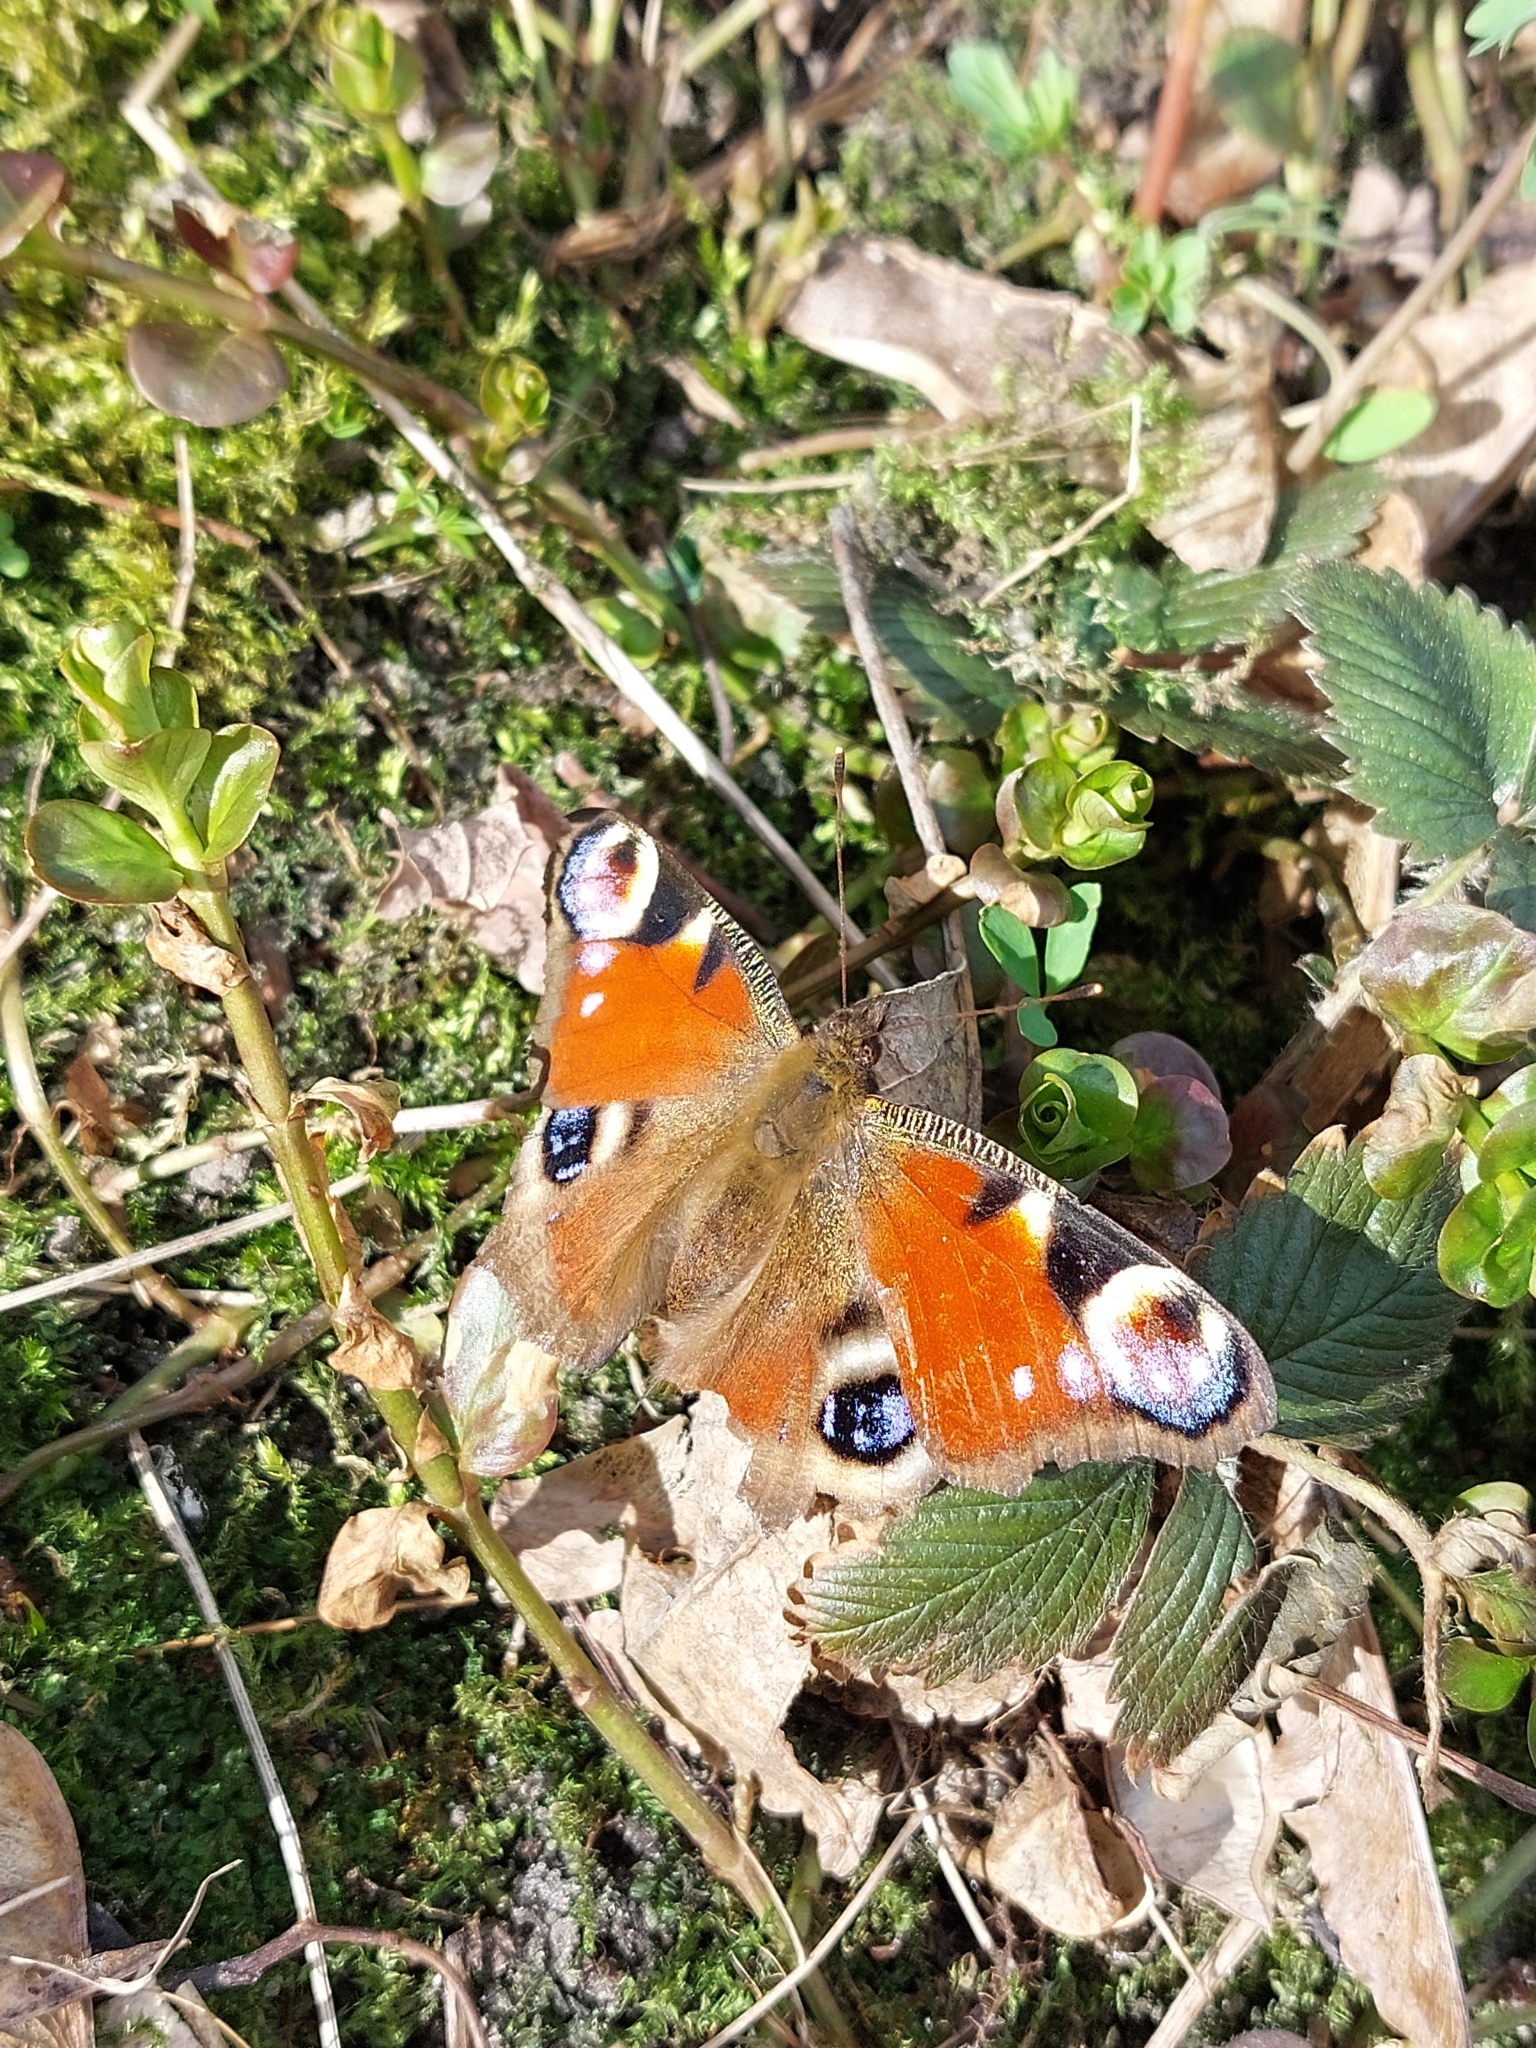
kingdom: Animalia
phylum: Arthropoda
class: Insecta
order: Lepidoptera
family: Nymphalidae
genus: Aglais
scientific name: Aglais io
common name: Peacock
